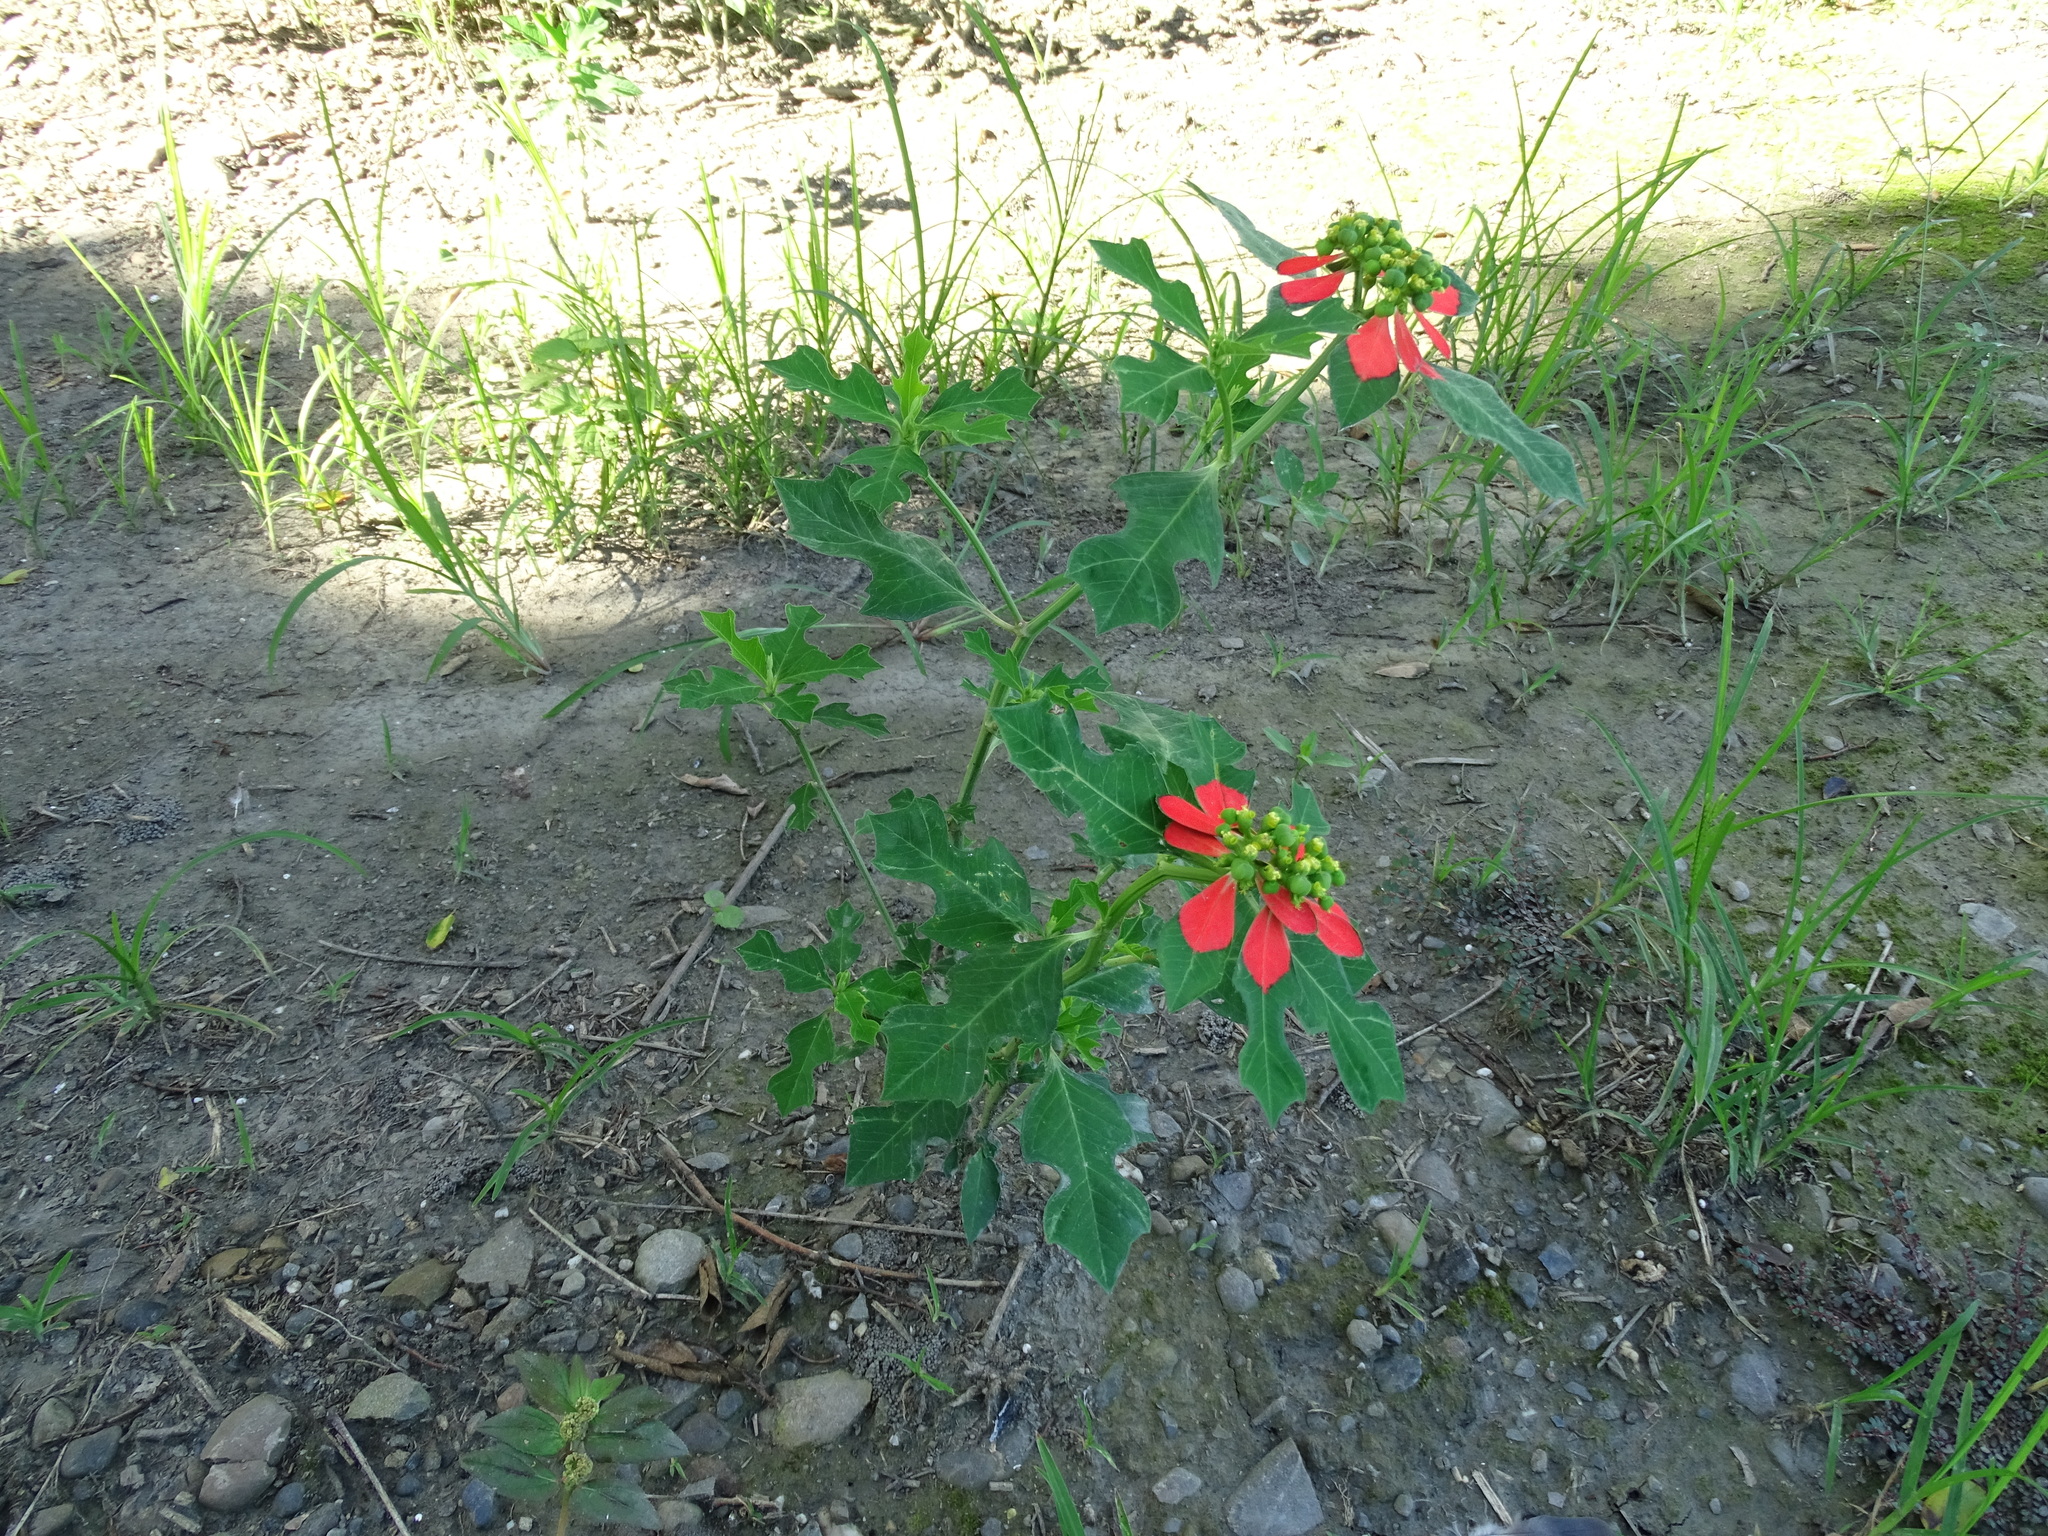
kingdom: Plantae
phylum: Tracheophyta
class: Magnoliopsida
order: Malpighiales
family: Euphorbiaceae
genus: Euphorbia
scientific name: Euphorbia heterophylla
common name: Mexican fireplant
